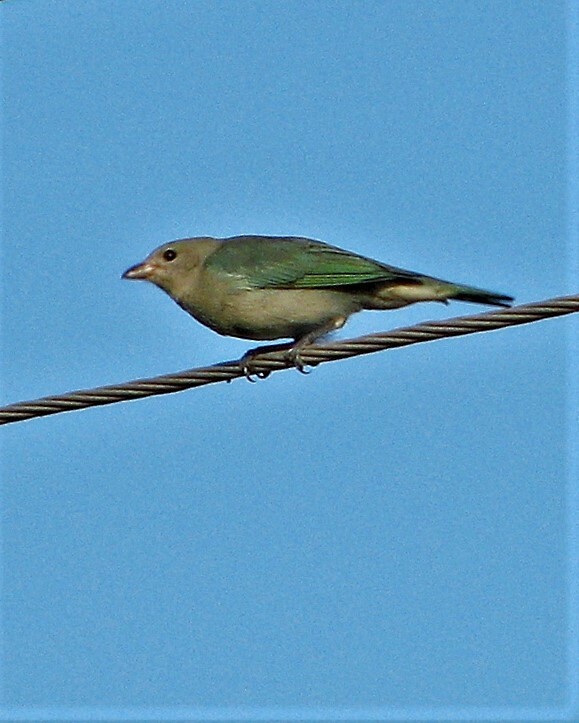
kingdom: Animalia
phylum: Chordata
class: Aves
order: Passeriformes
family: Thraupidae
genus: Thraupis
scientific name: Thraupis sayaca
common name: Sayaca tanager
